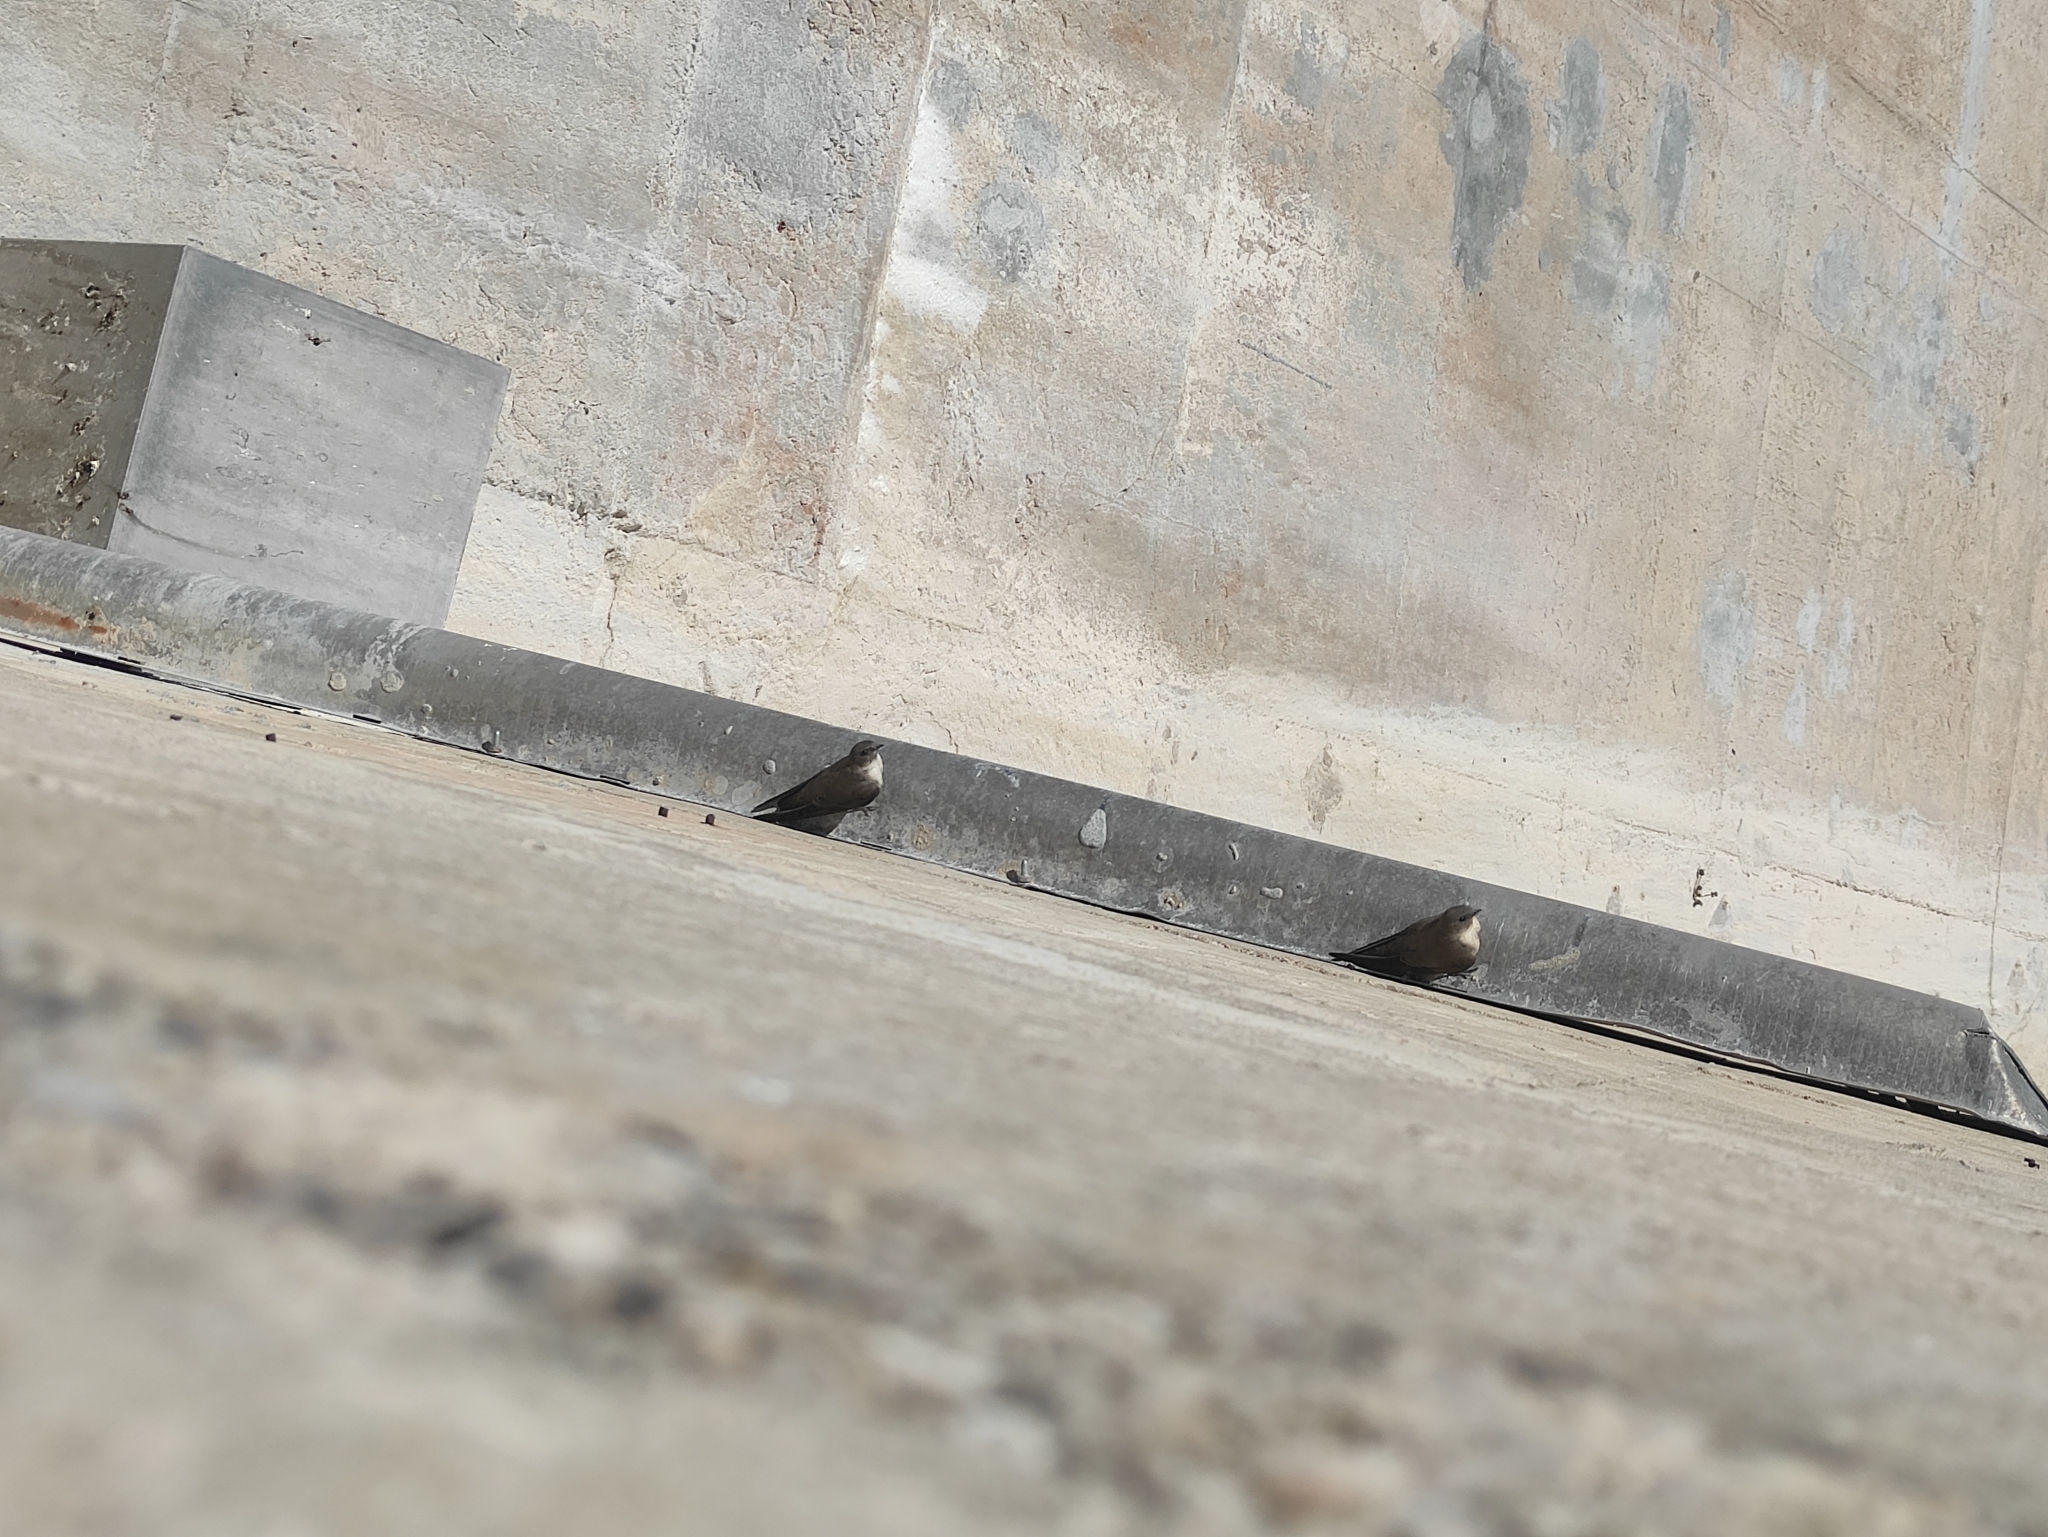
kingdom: Animalia
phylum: Chordata
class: Aves
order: Passeriformes
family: Hirundinidae
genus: Ptyonoprogne
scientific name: Ptyonoprogne rupestris
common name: Eurasian crag martin
